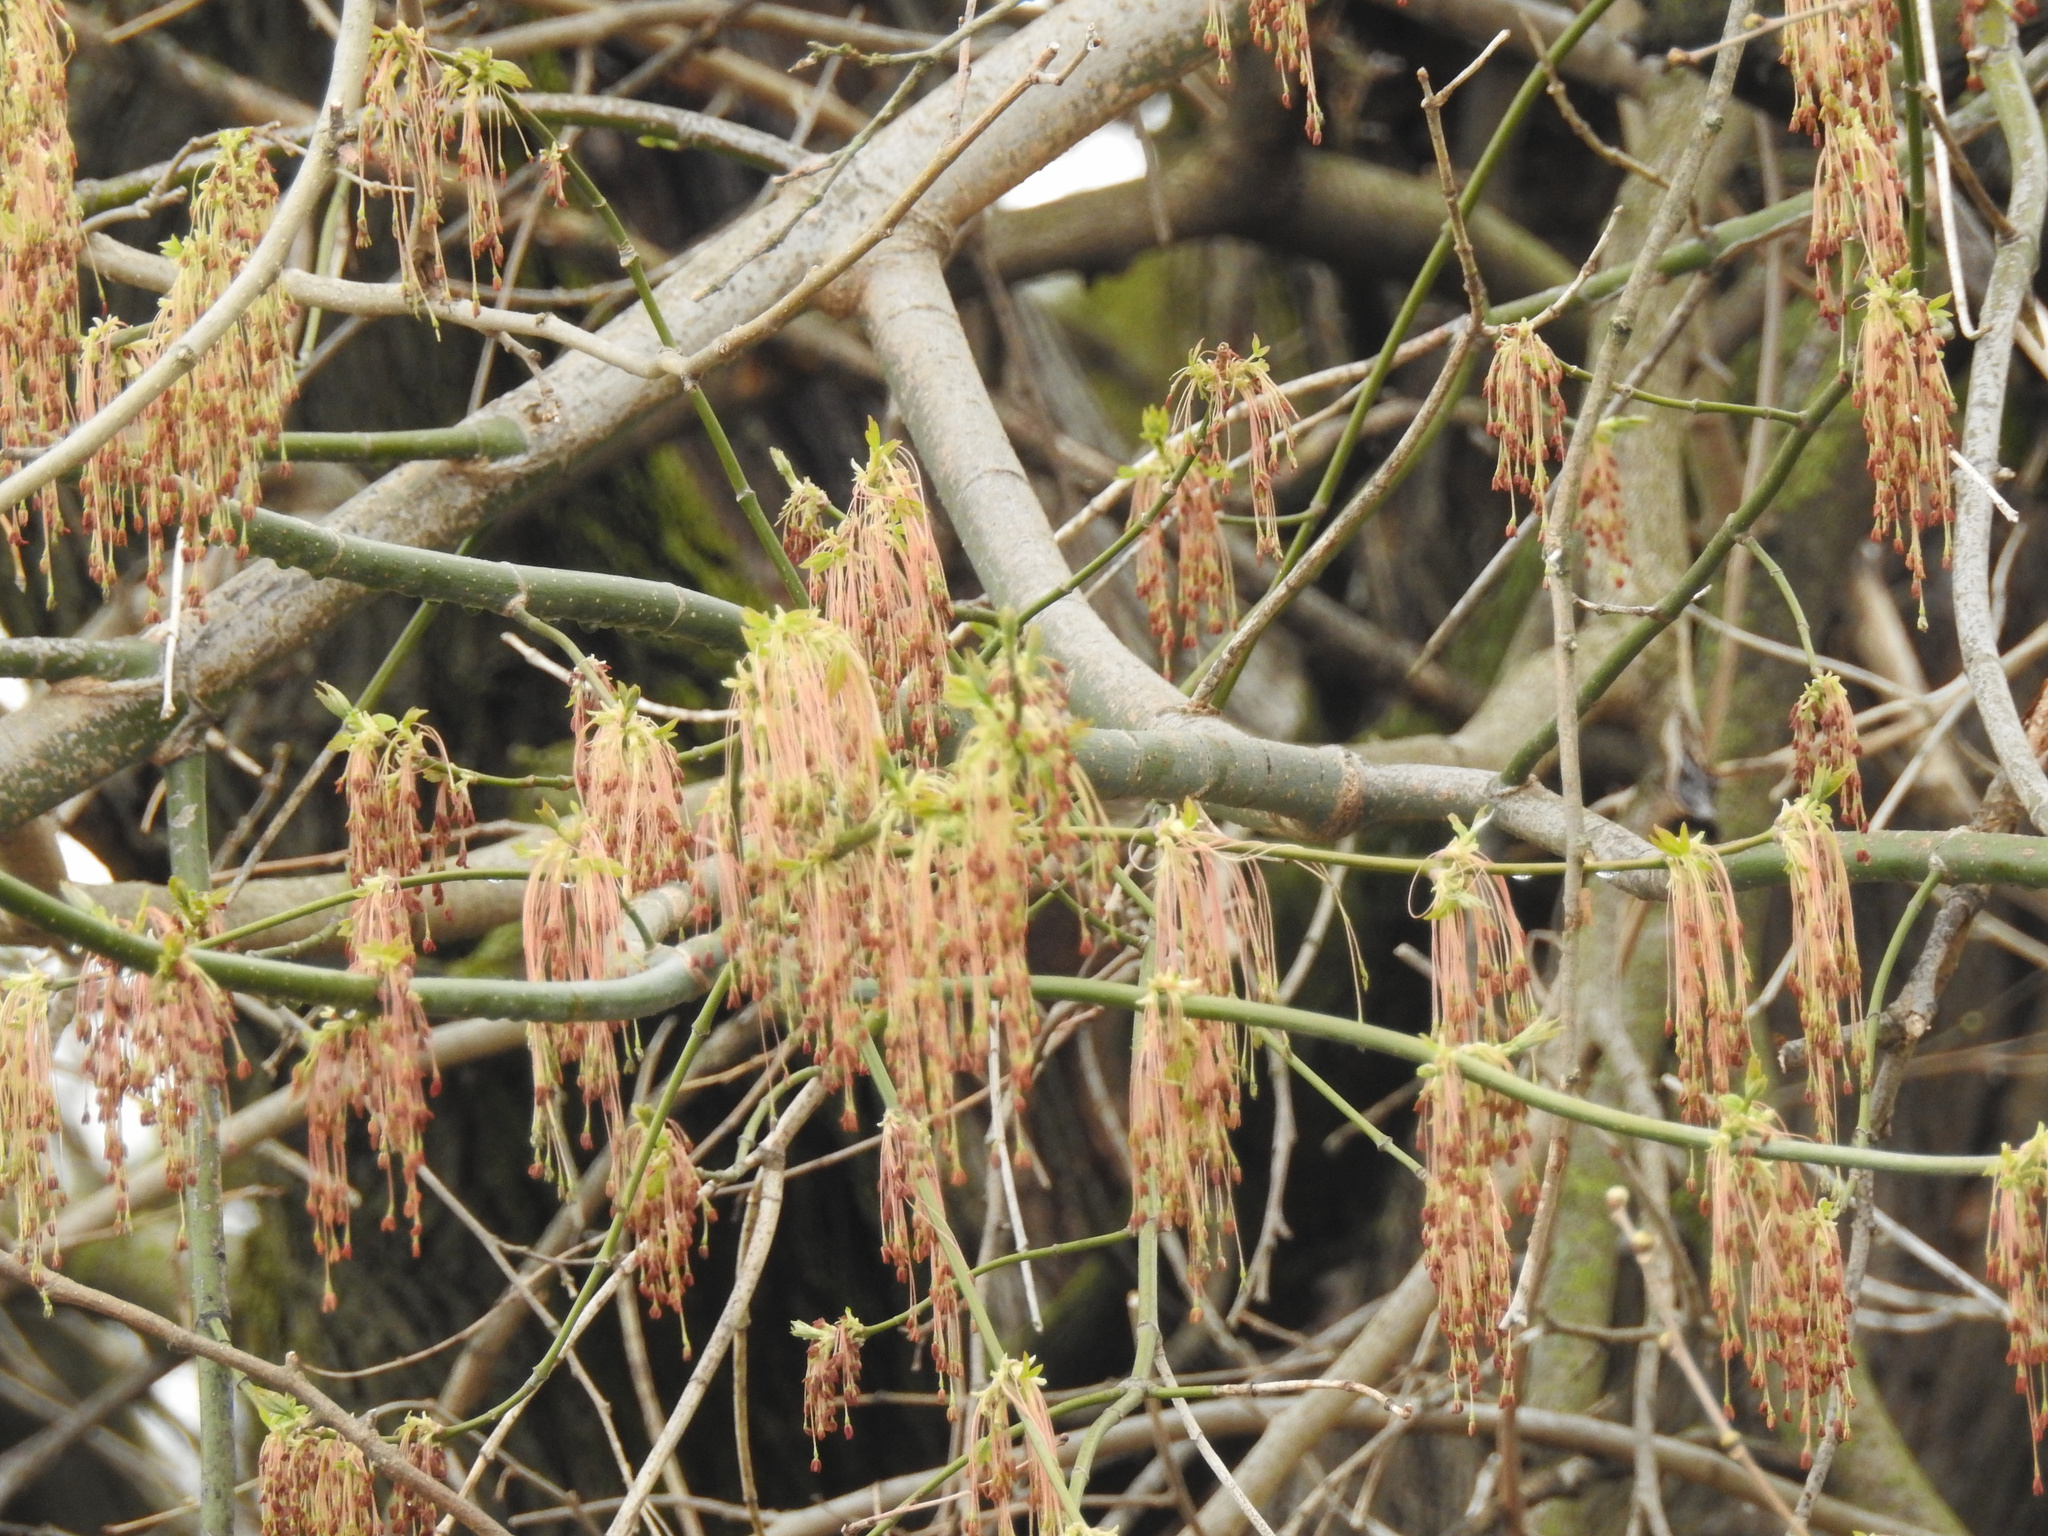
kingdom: Plantae
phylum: Tracheophyta
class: Magnoliopsida
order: Sapindales
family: Sapindaceae
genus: Acer
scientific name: Acer negundo
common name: Ashleaf maple
